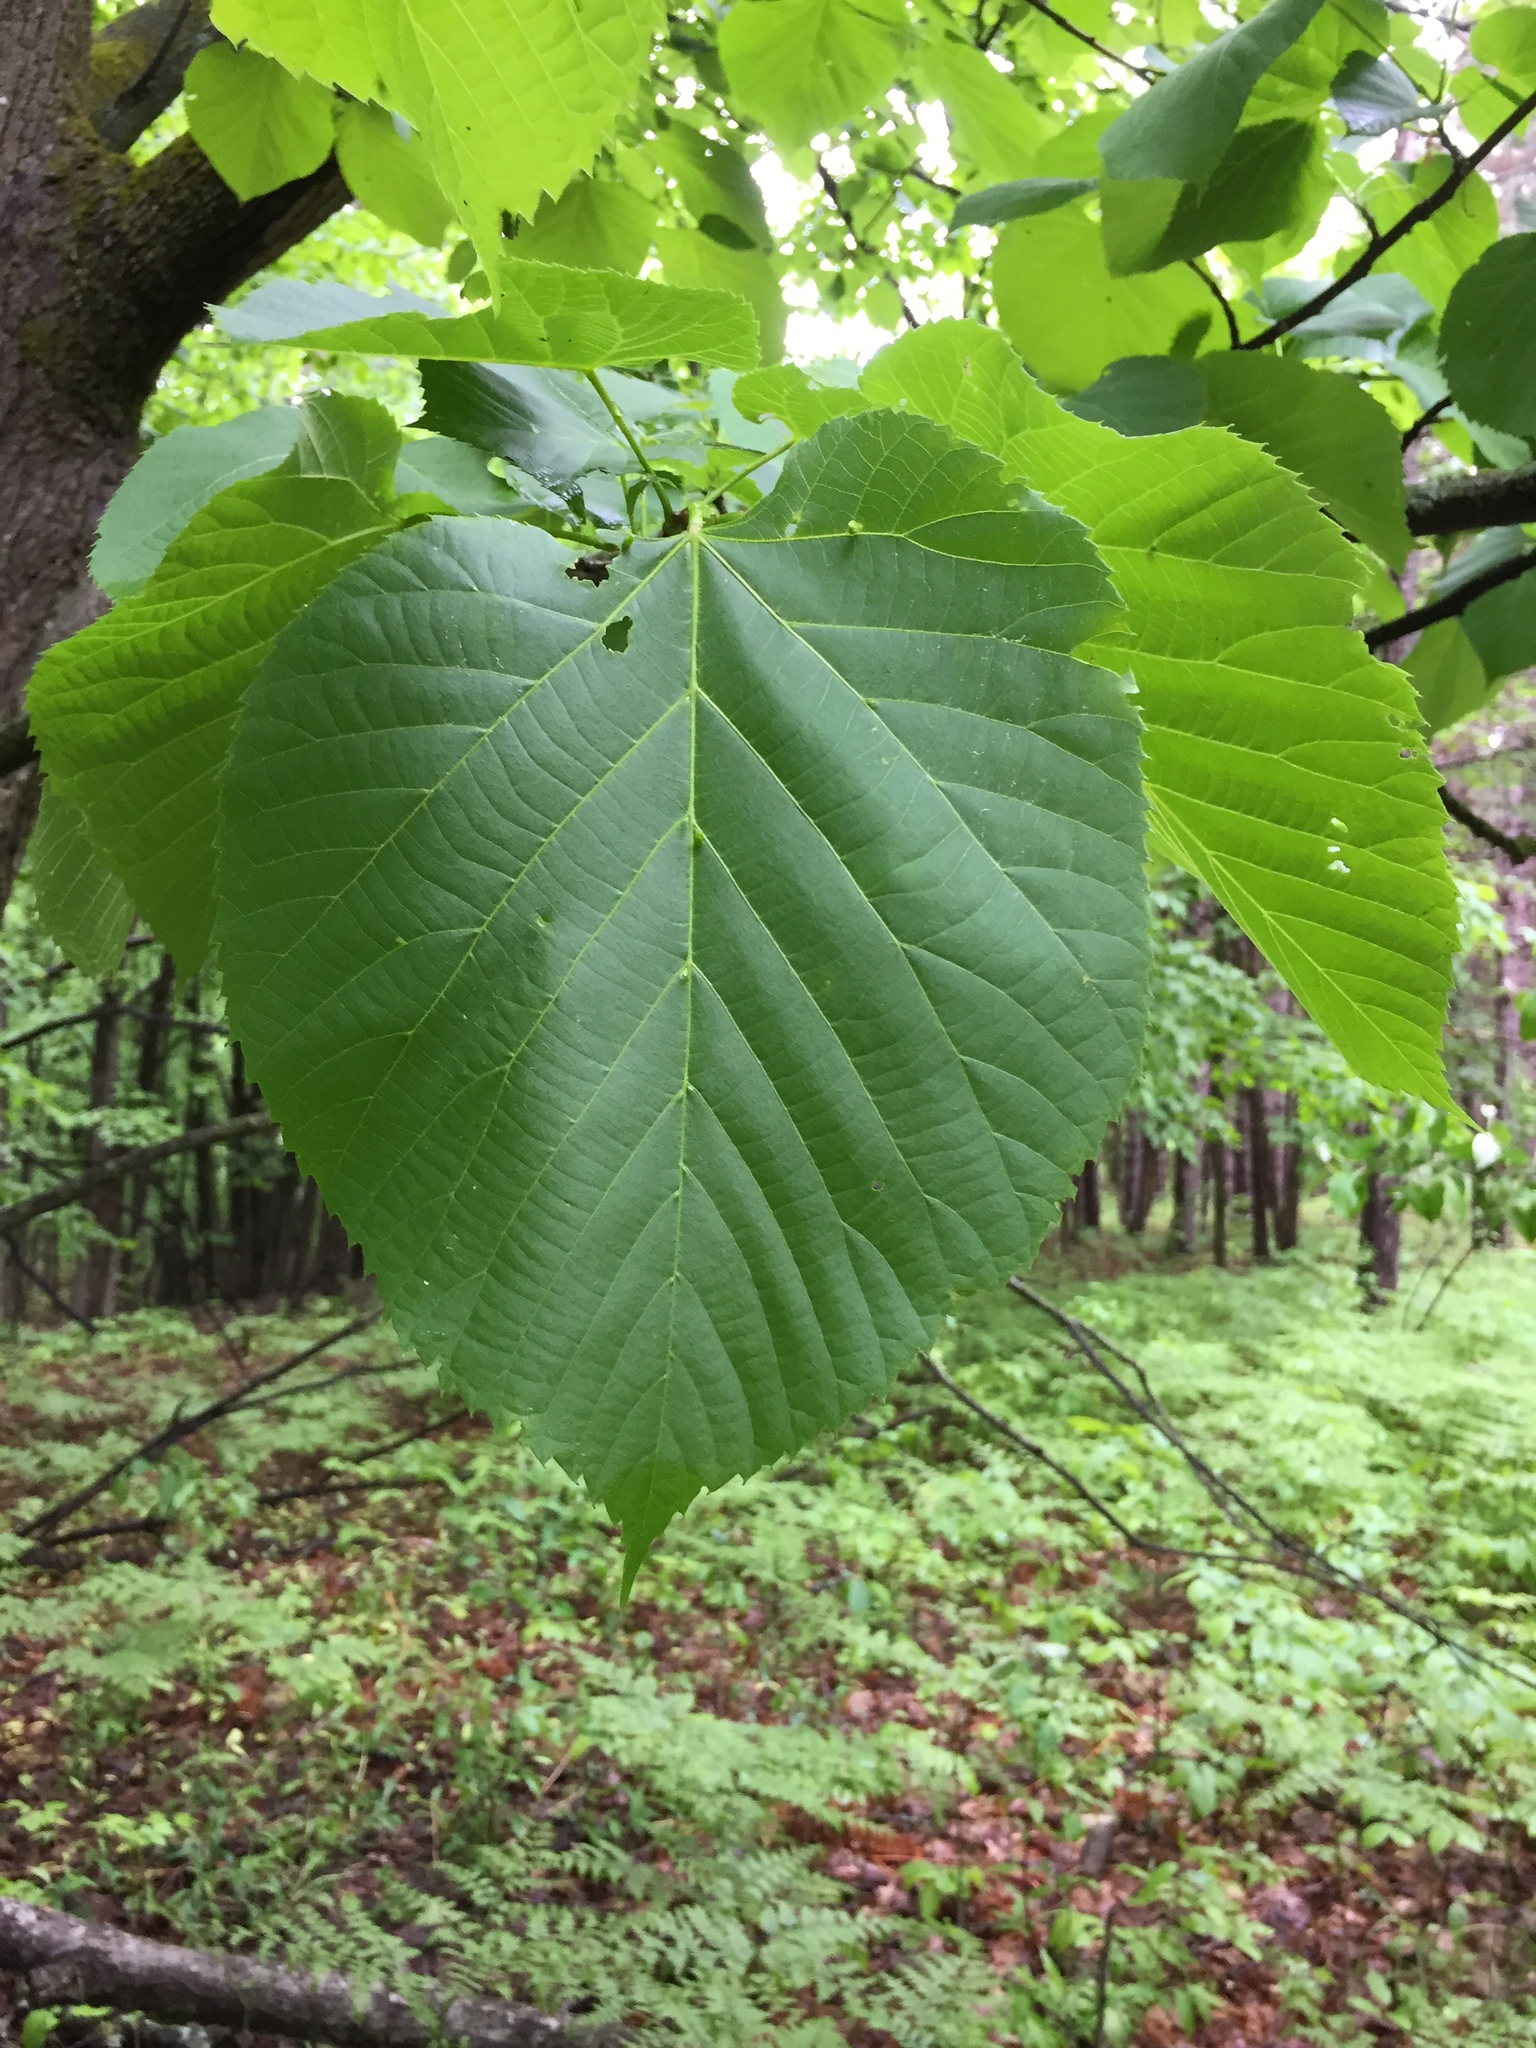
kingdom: Plantae
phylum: Tracheophyta
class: Magnoliopsida
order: Malvales
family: Malvaceae
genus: Tilia
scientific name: Tilia americana
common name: Basswood
